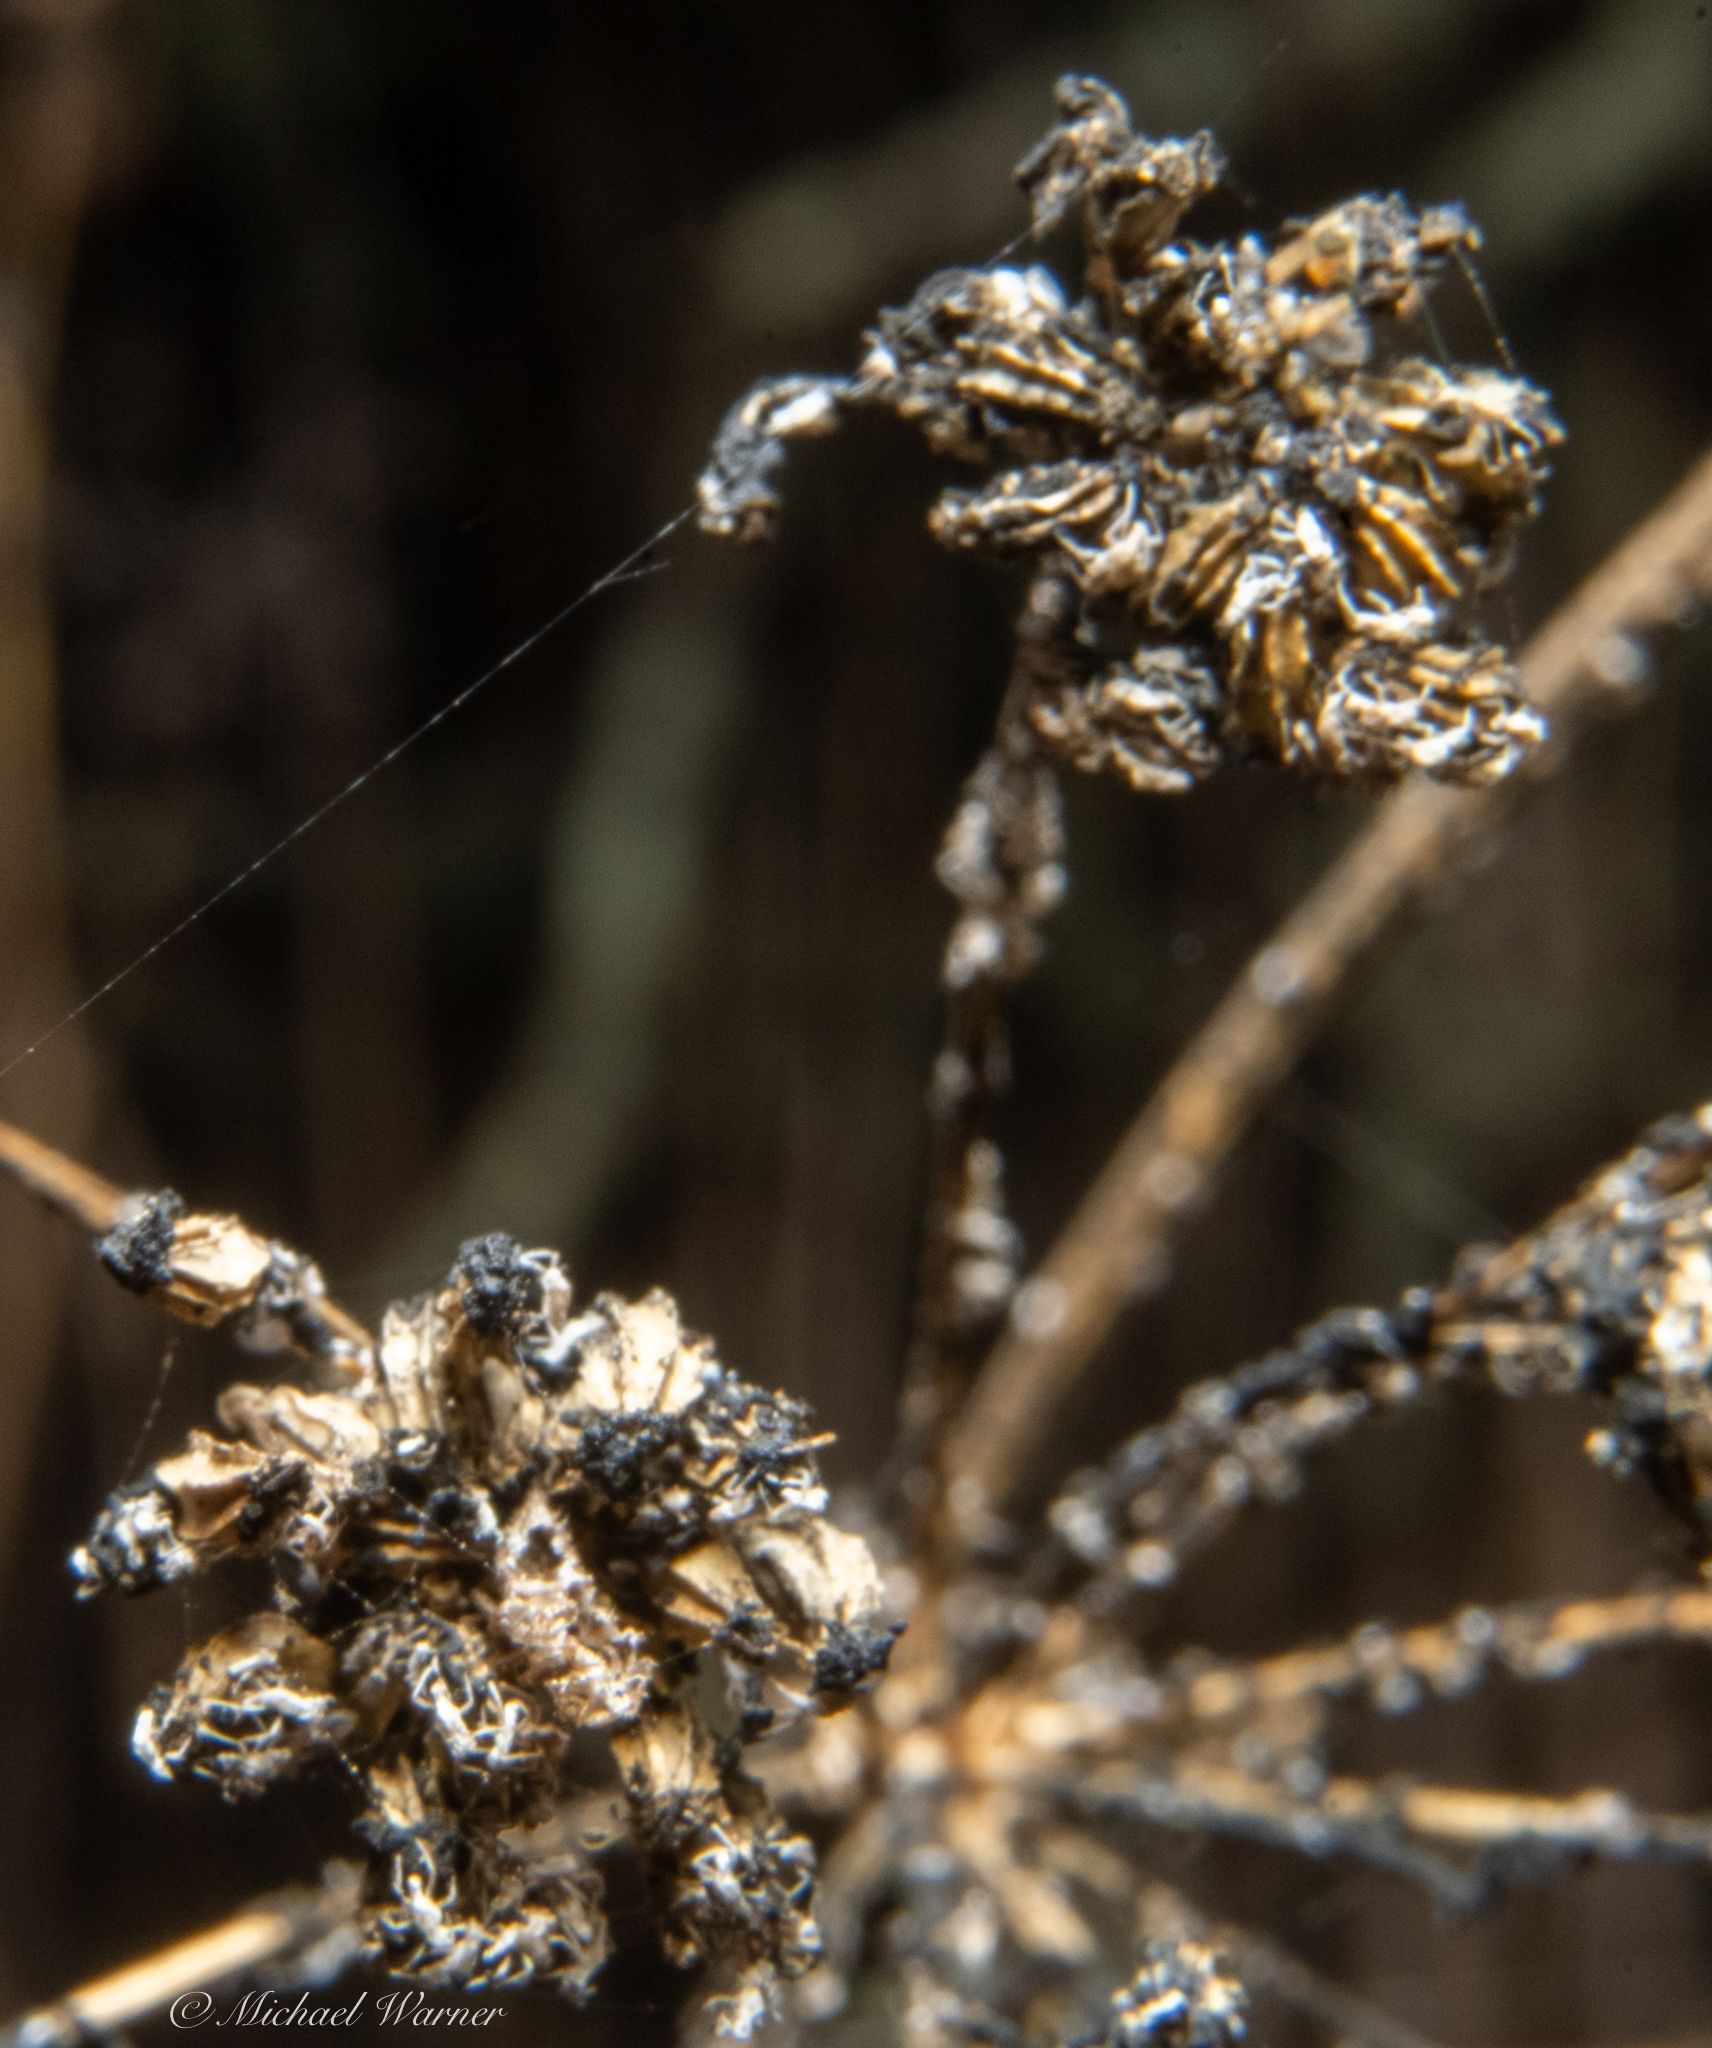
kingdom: Plantae
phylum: Tracheophyta
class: Magnoliopsida
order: Apiales
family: Apiaceae
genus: Conium
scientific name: Conium maculatum
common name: Hemlock
